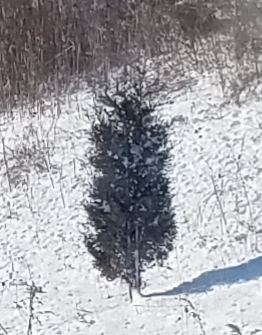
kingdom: Plantae
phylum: Tracheophyta
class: Pinopsida
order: Pinales
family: Cupressaceae
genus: Juniperus
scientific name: Juniperus virginiana
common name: Red juniper
